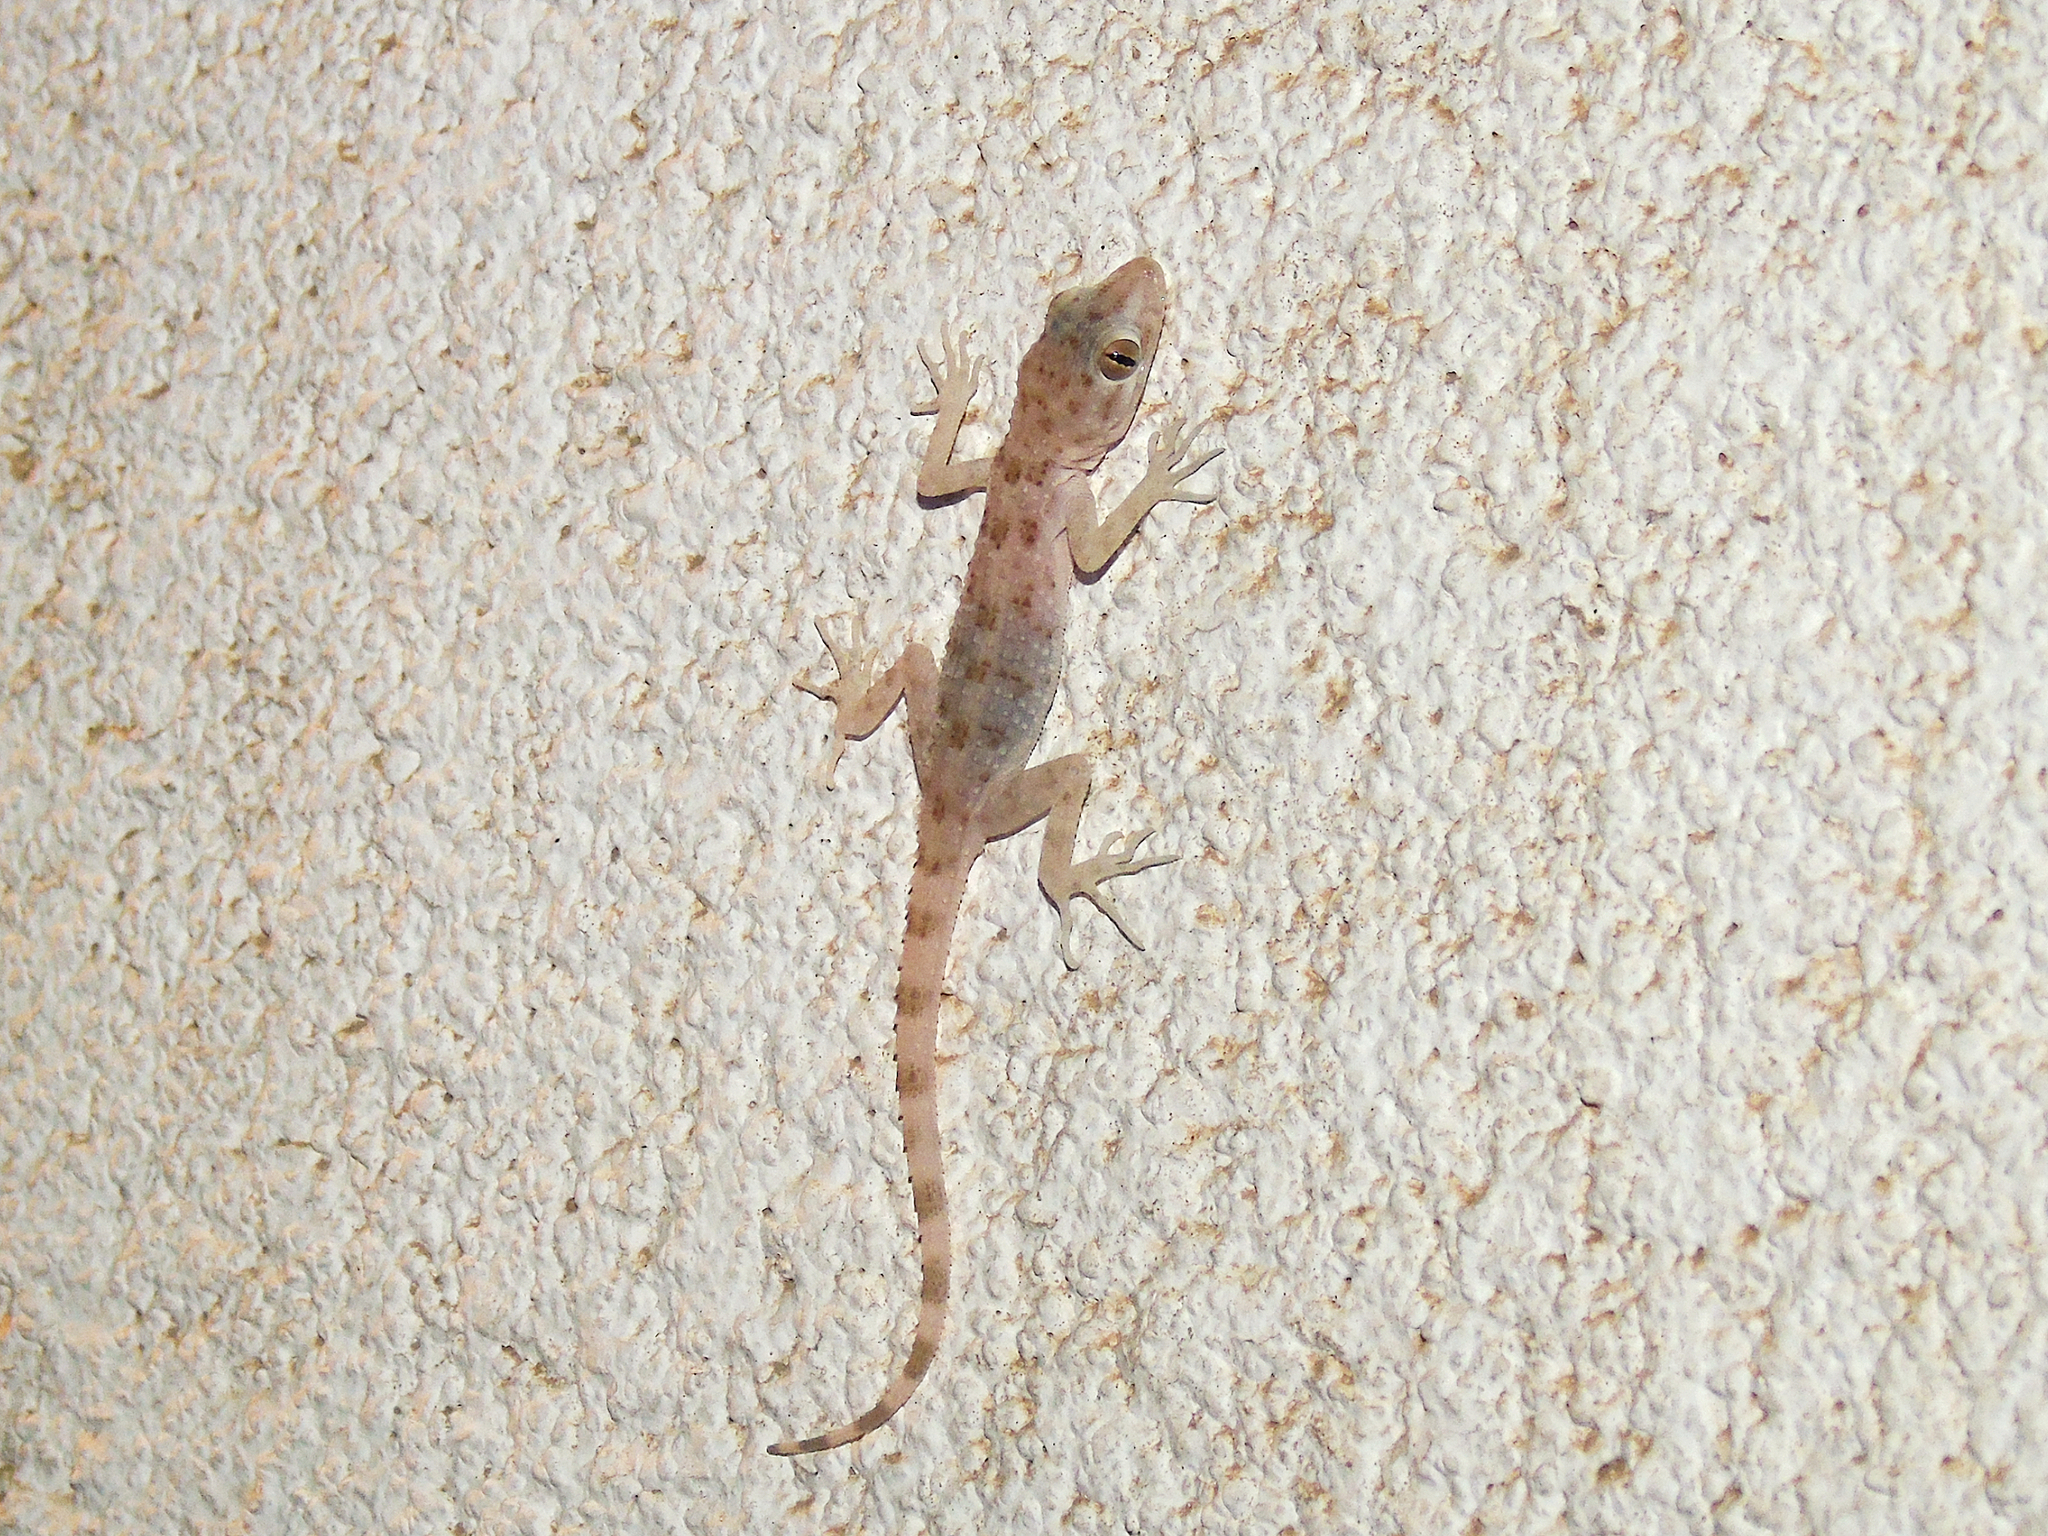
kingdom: Animalia
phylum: Chordata
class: Squamata
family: Gekkonidae
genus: Cyrtopodion
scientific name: Cyrtopodion scabrum
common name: Rough-tailed gecko
